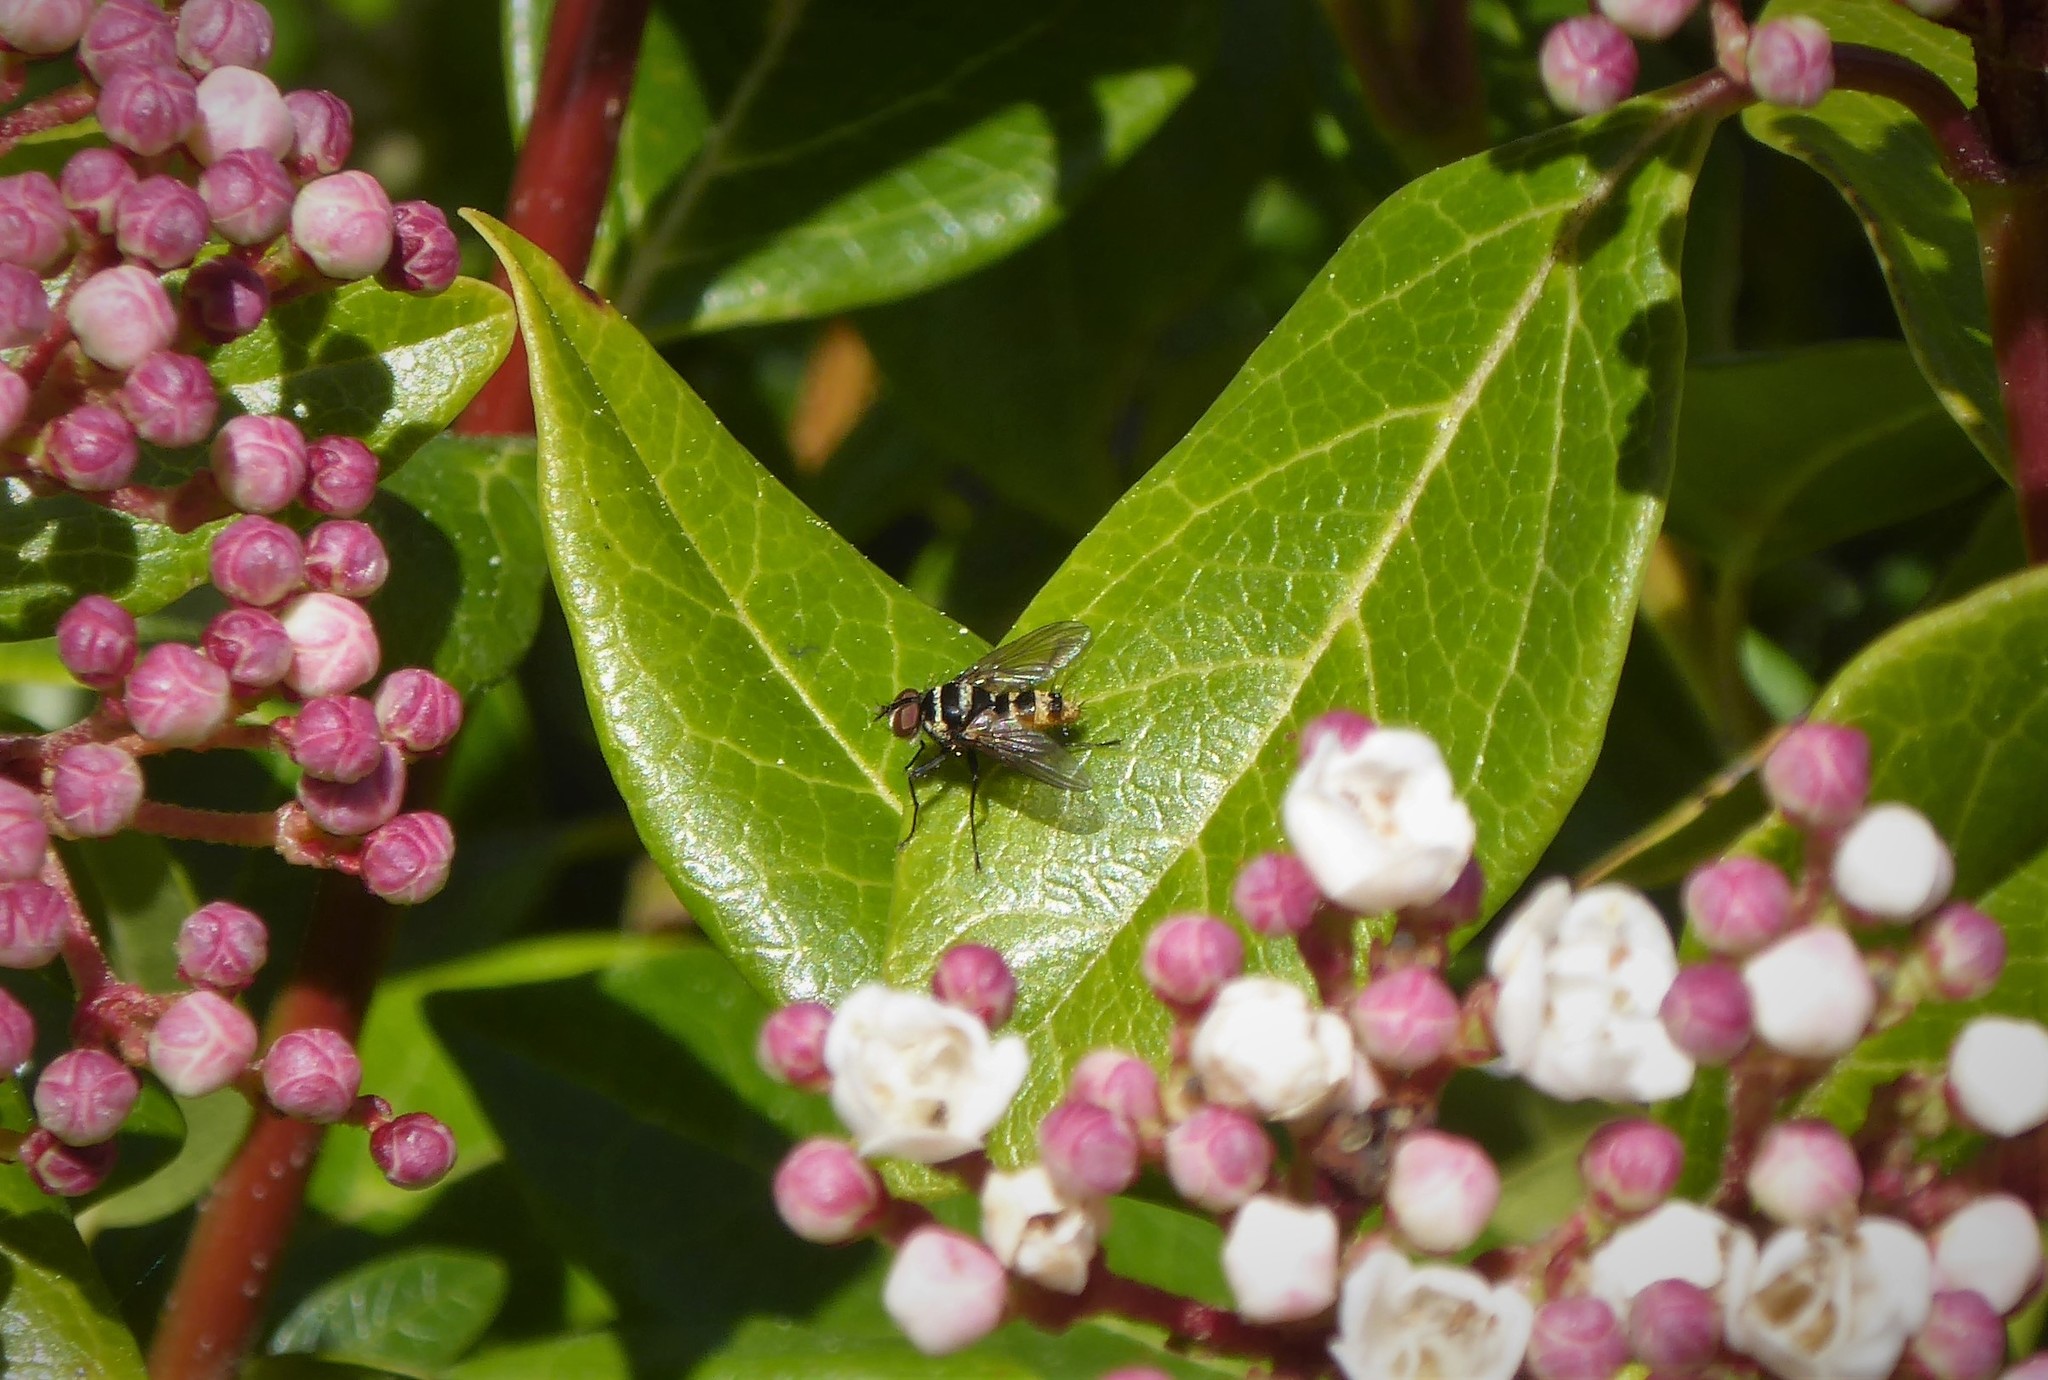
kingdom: Animalia
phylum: Arthropoda
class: Insecta
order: Diptera
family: Tachinidae
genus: Trigonospila
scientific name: Trigonospila brevifacies
